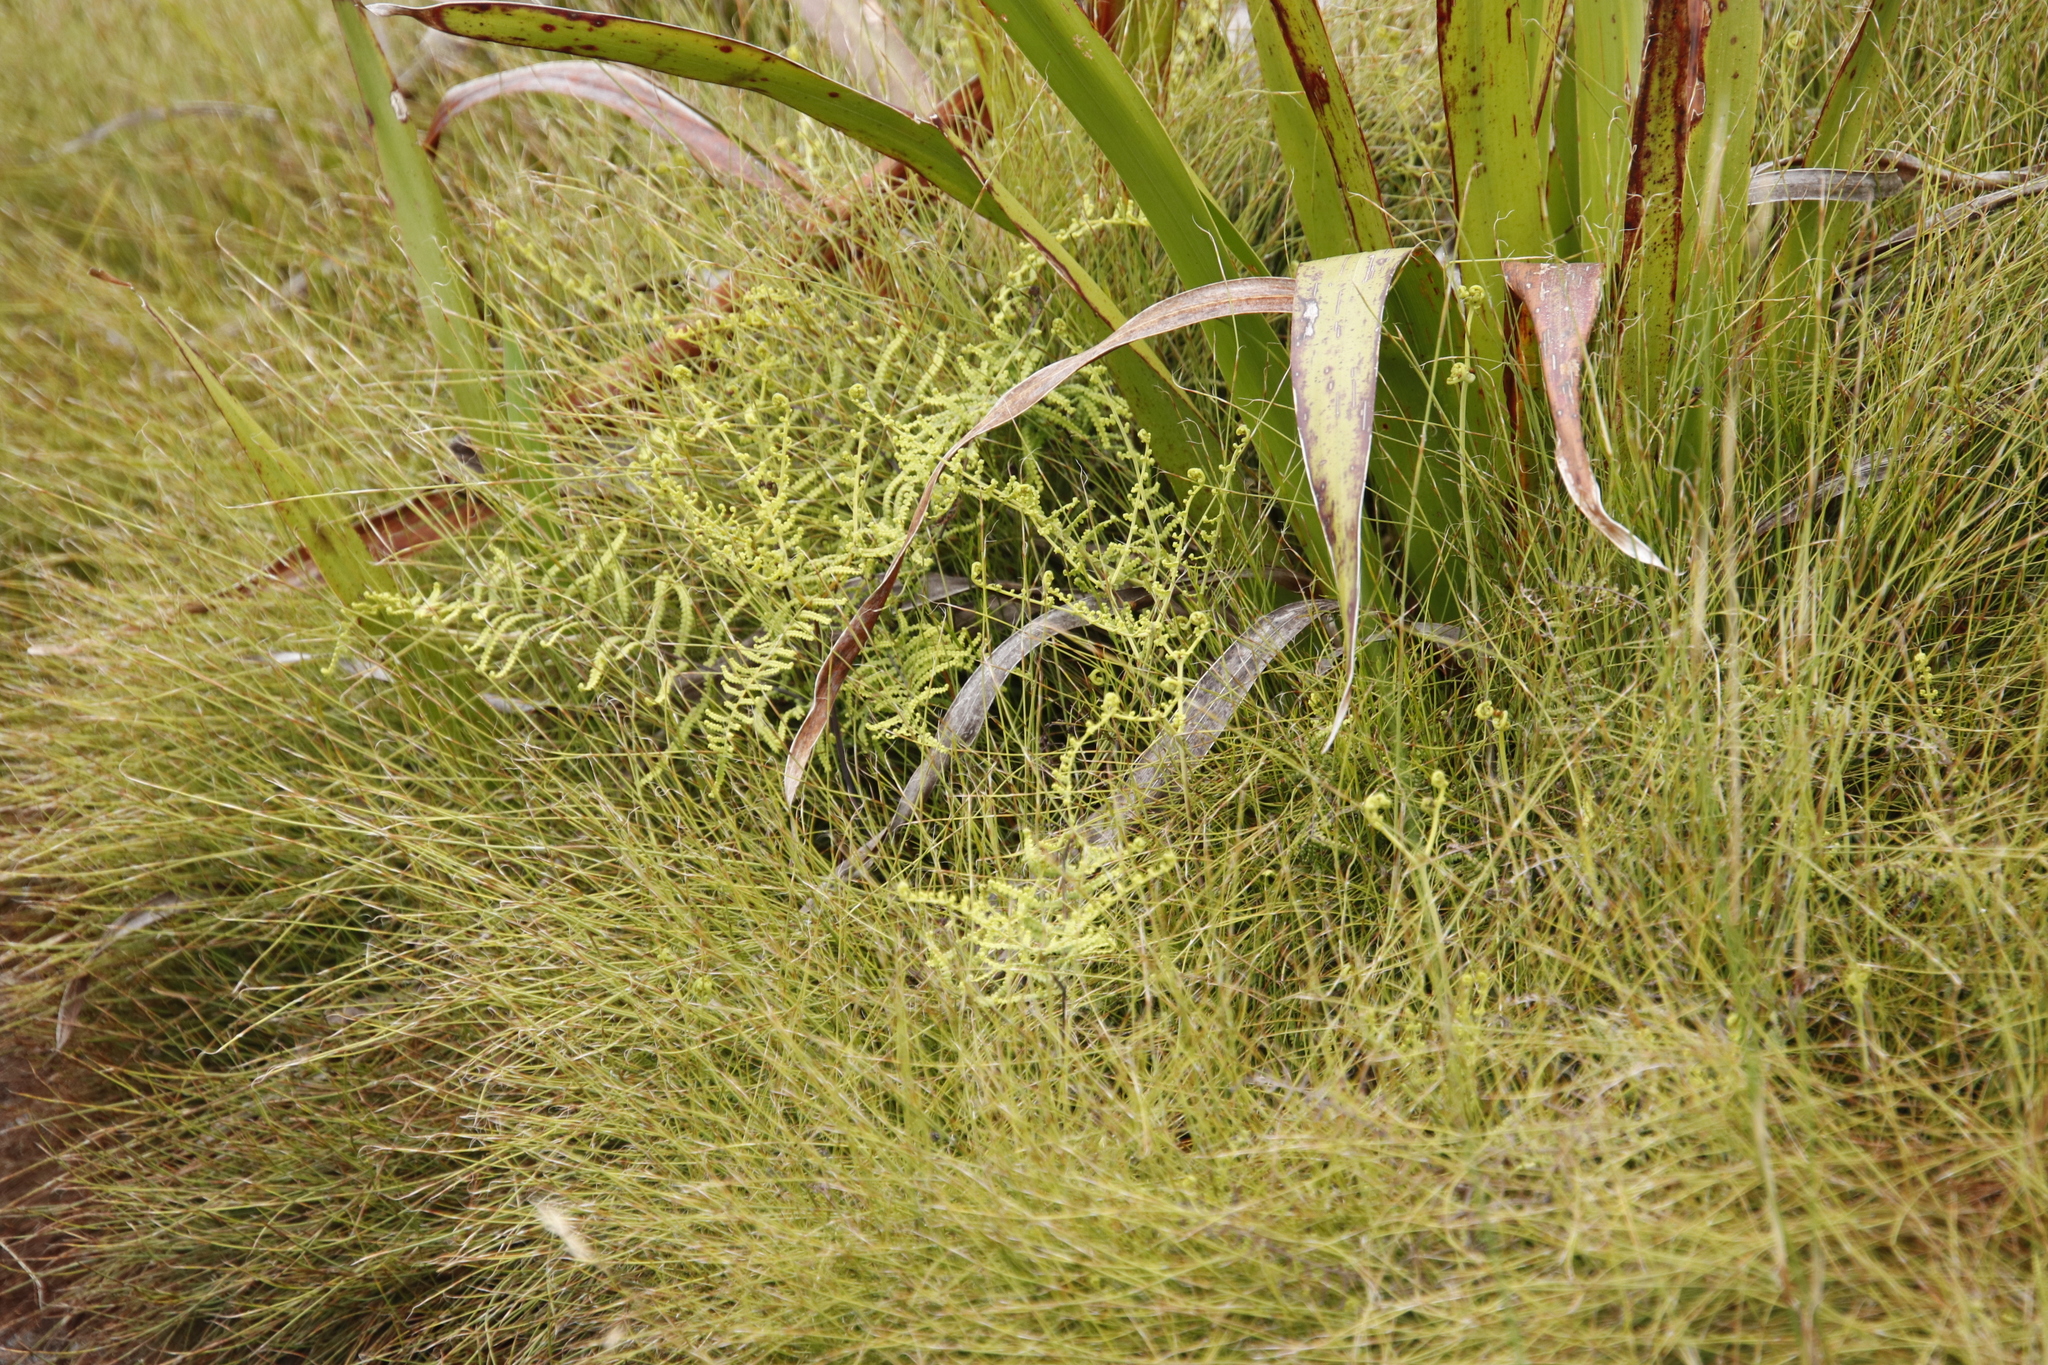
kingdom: Plantae
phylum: Tracheophyta
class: Polypodiopsida
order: Gleicheniales
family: Gleicheniaceae
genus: Gleichenia
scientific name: Gleichenia polypodioides
